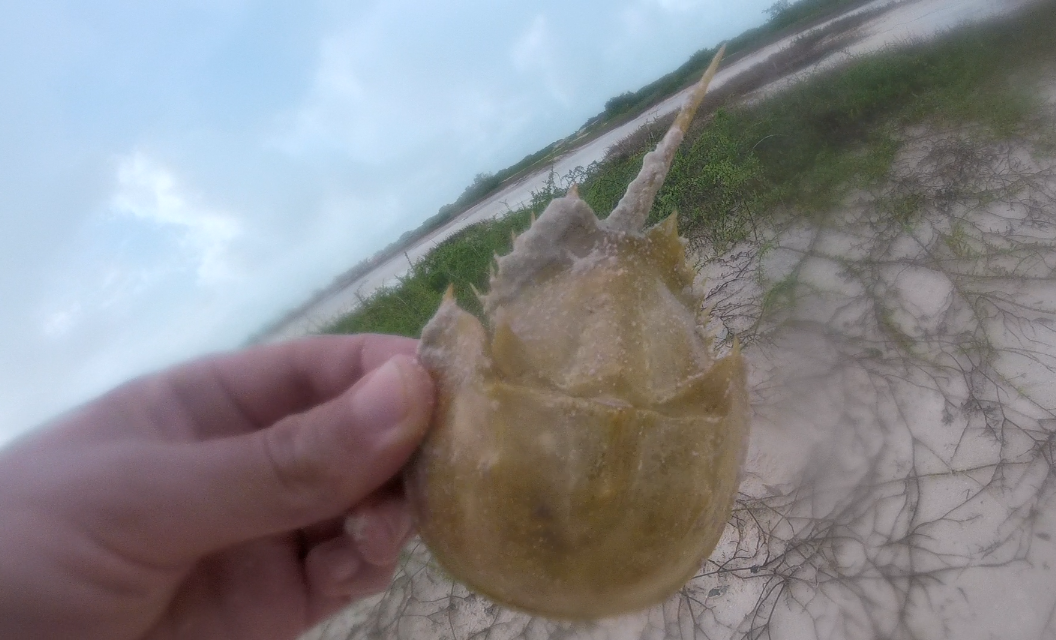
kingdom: Animalia
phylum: Arthropoda
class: Merostomata
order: Xiphosurida
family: Limulidae
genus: Limulus
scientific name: Limulus polyphemus
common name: Horseshoe crab
